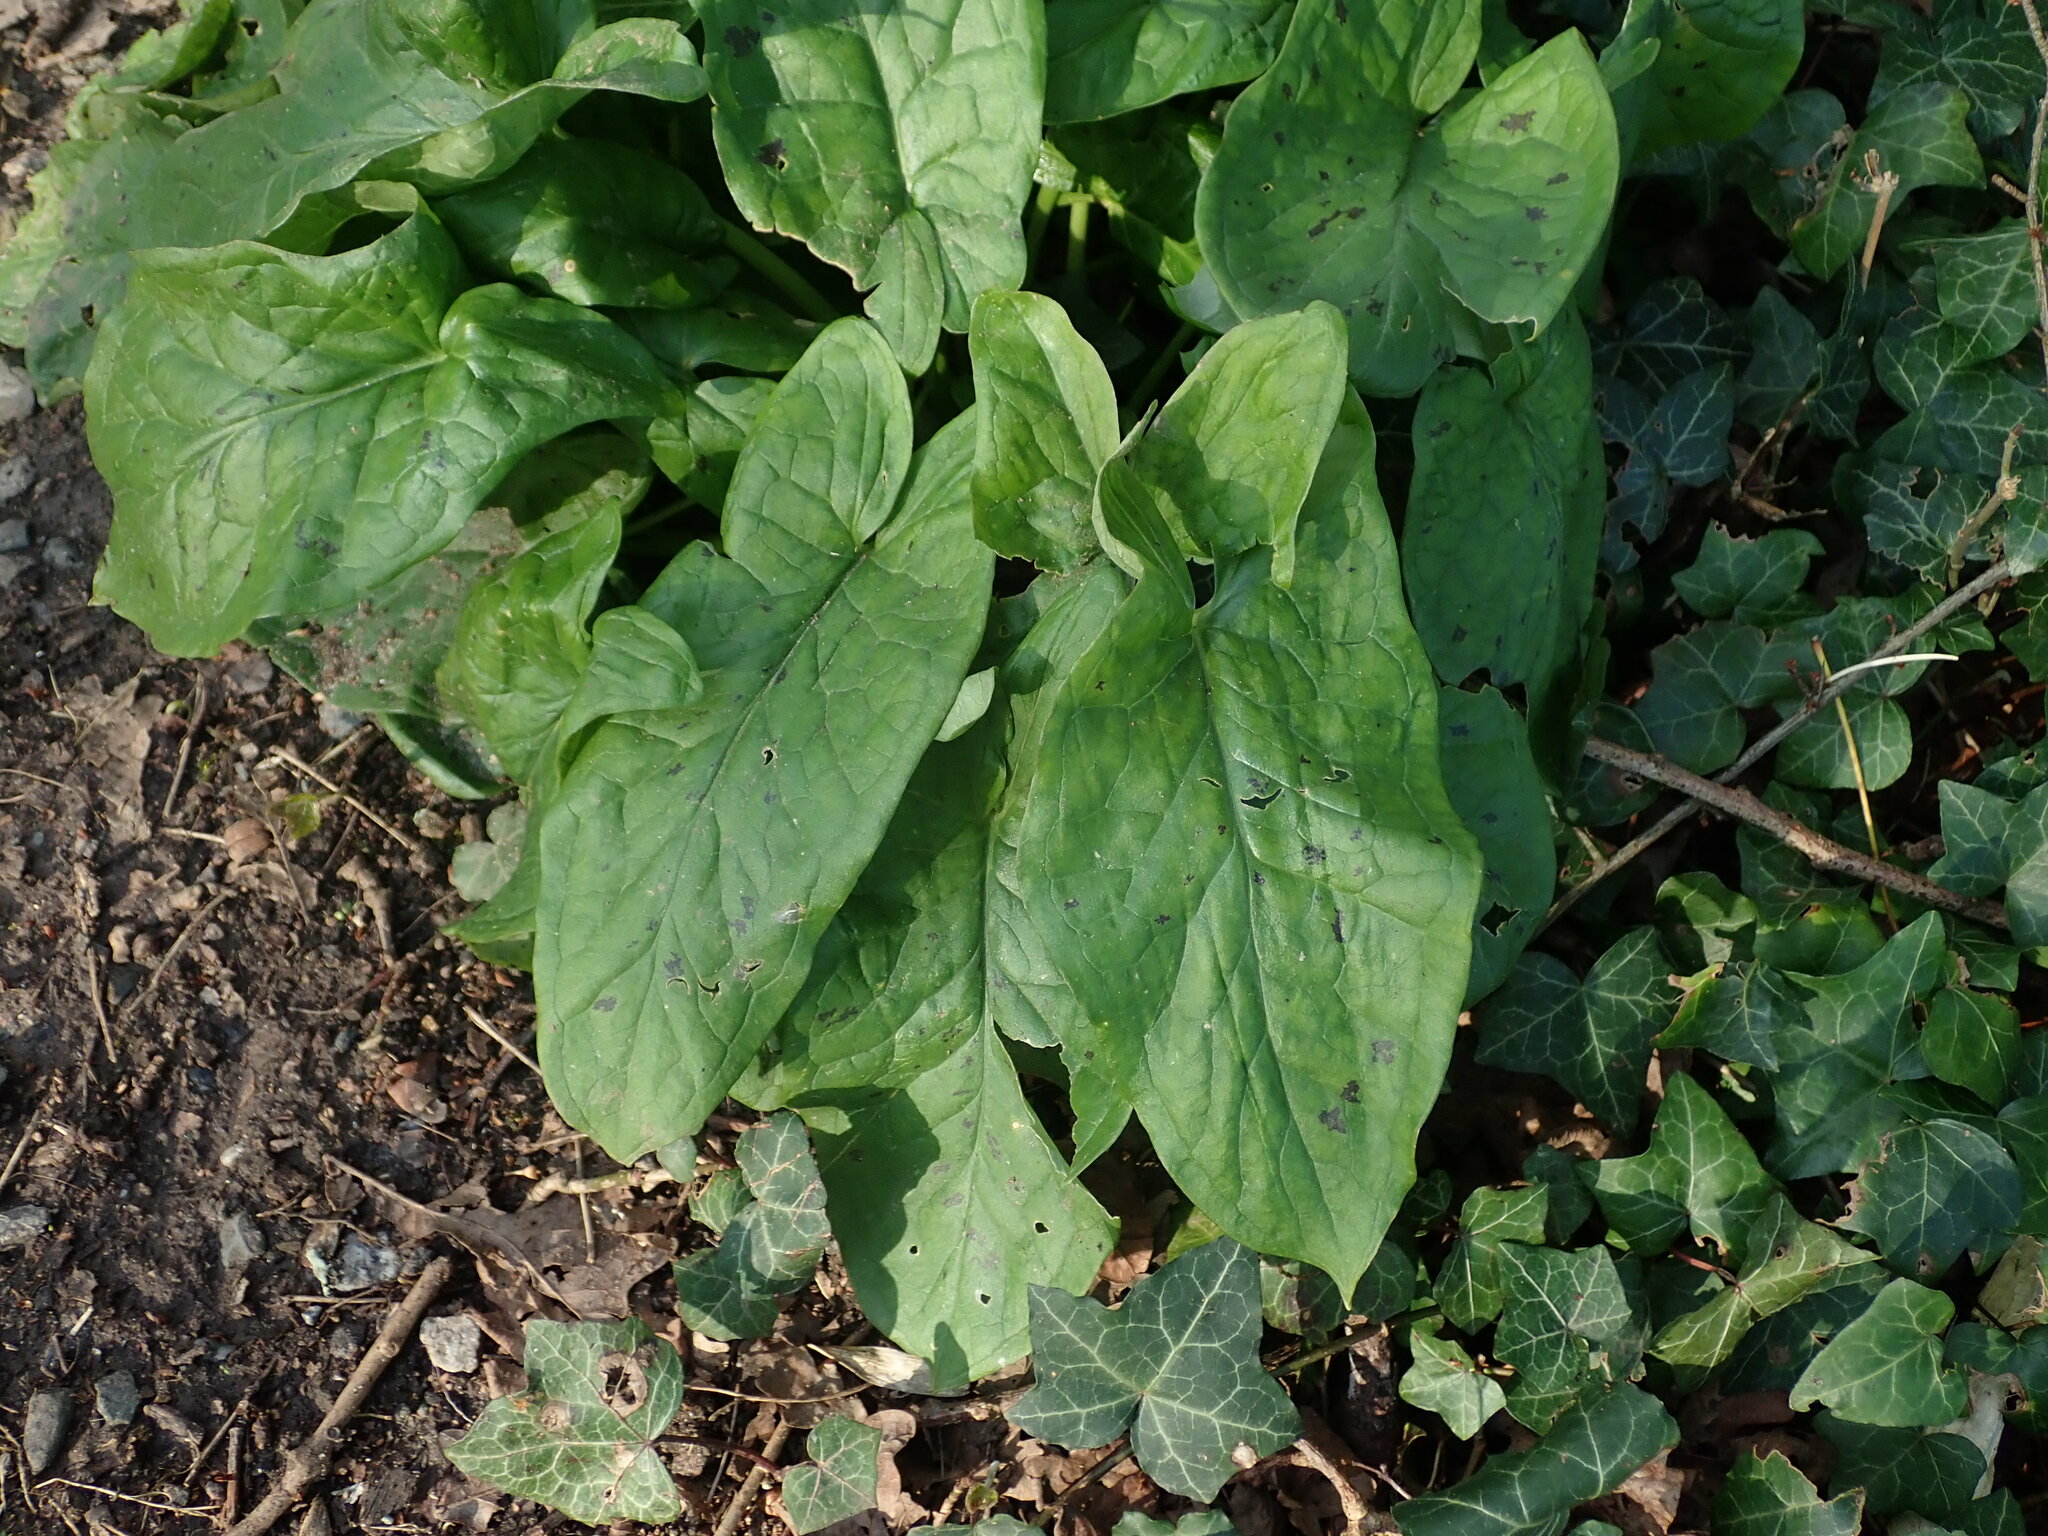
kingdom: Plantae
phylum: Tracheophyta
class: Liliopsida
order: Alismatales
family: Araceae
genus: Arum
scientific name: Arum maculatum
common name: Lords-and-ladies
